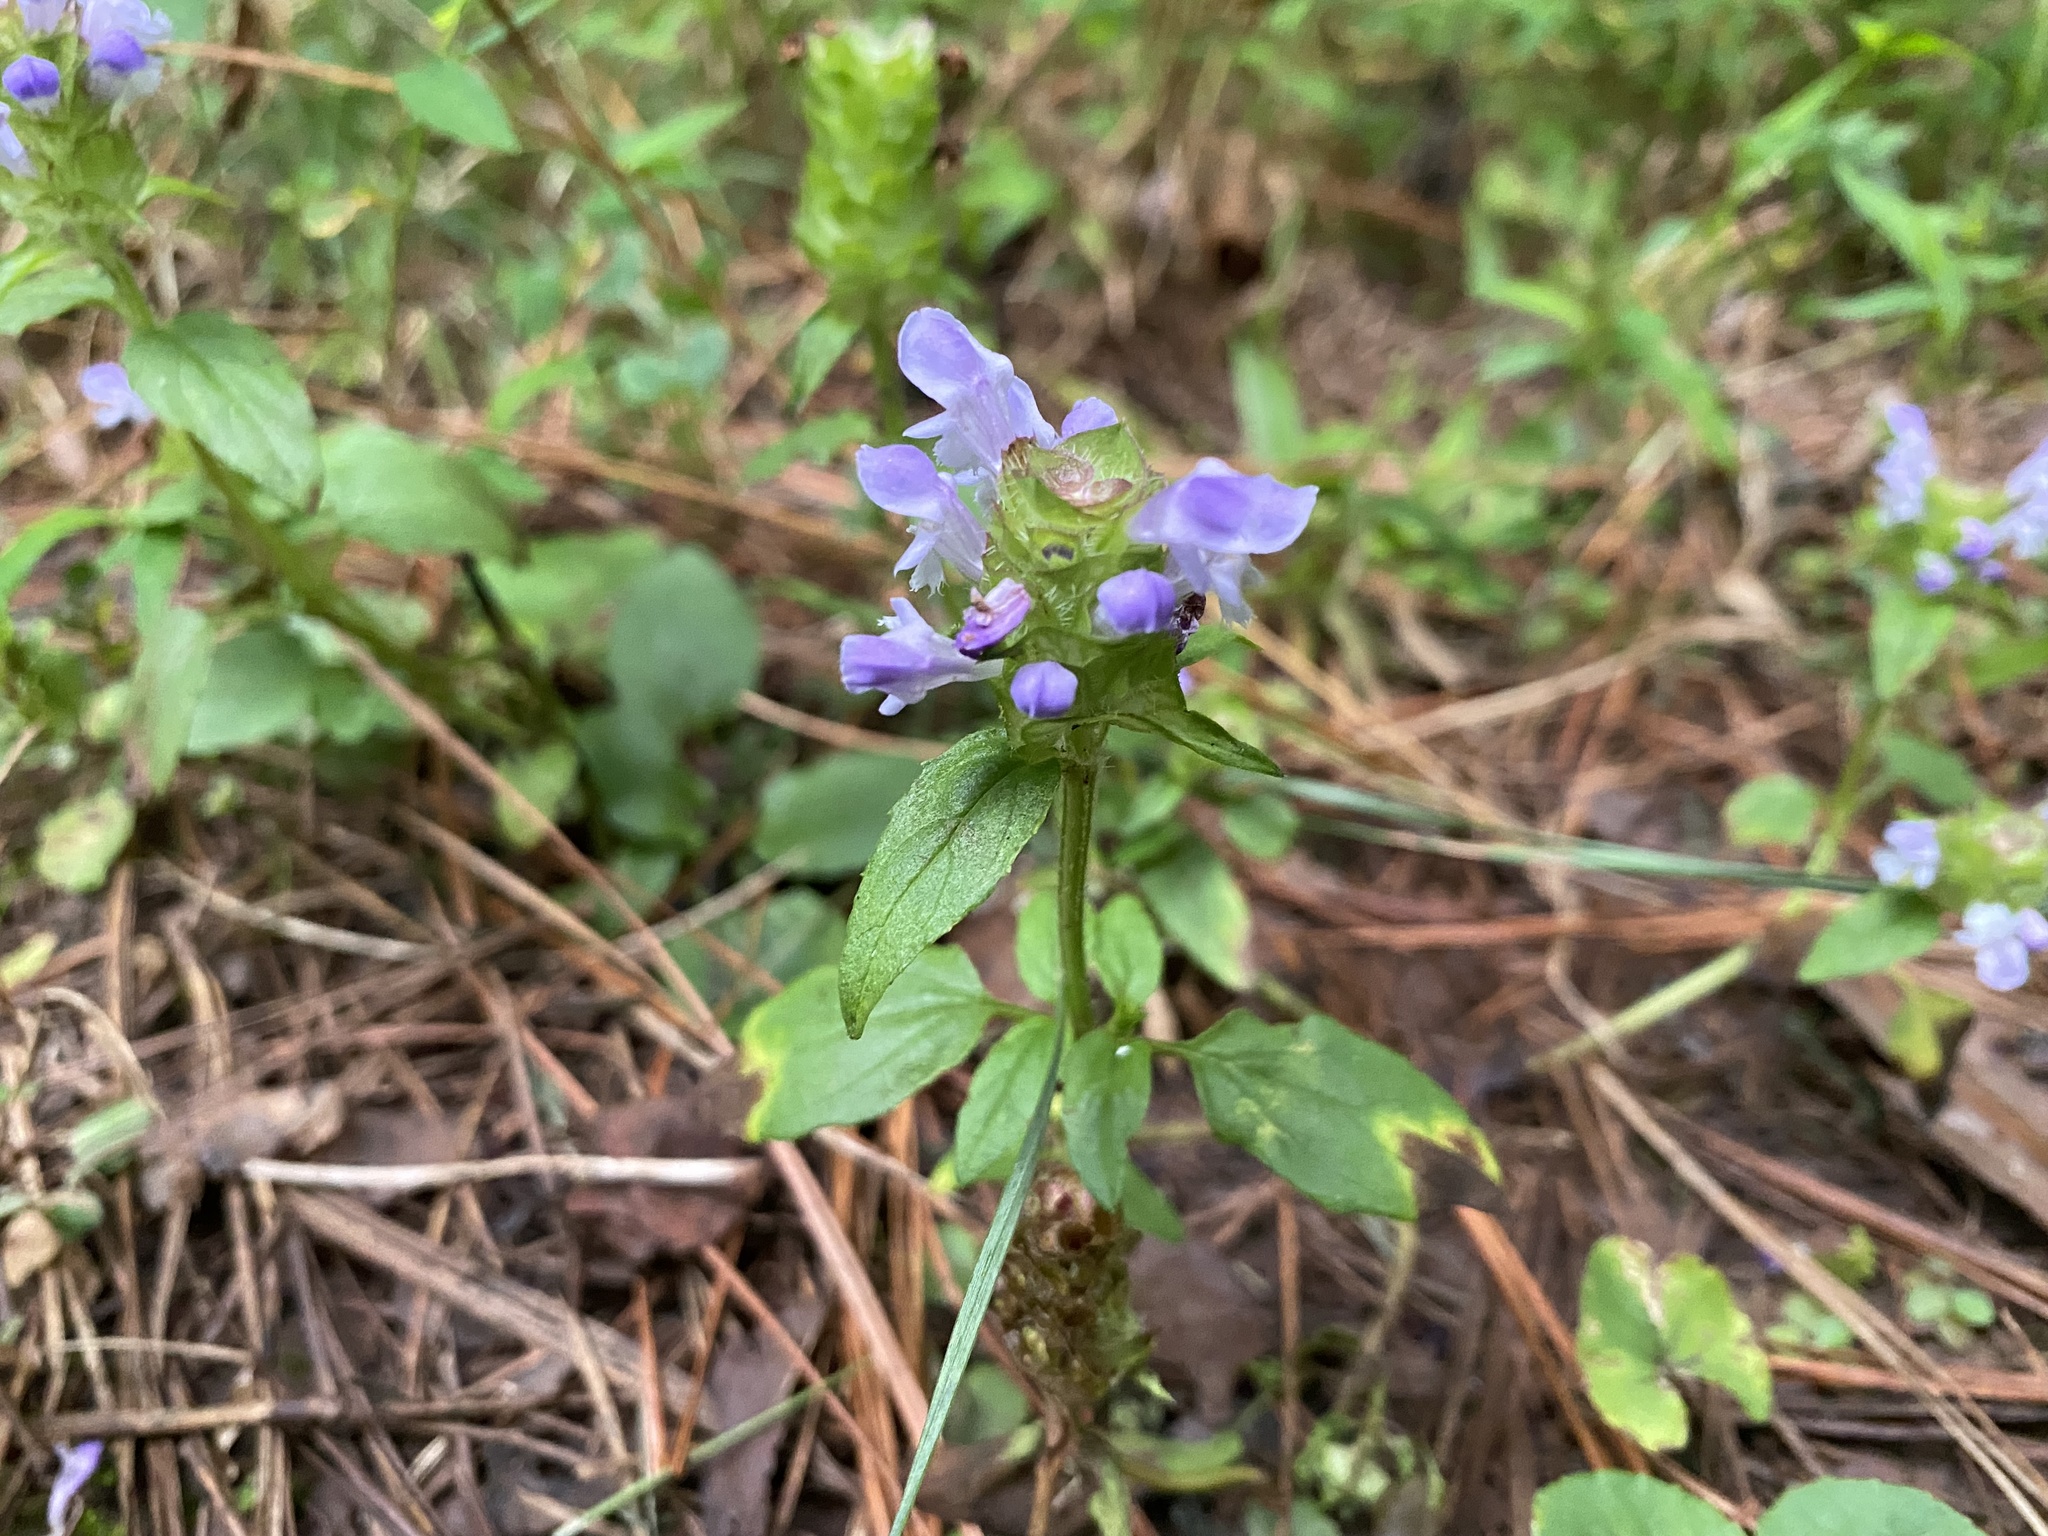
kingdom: Plantae
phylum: Tracheophyta
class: Magnoliopsida
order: Lamiales
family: Lamiaceae
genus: Prunella
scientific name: Prunella vulgaris
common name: Heal-all
